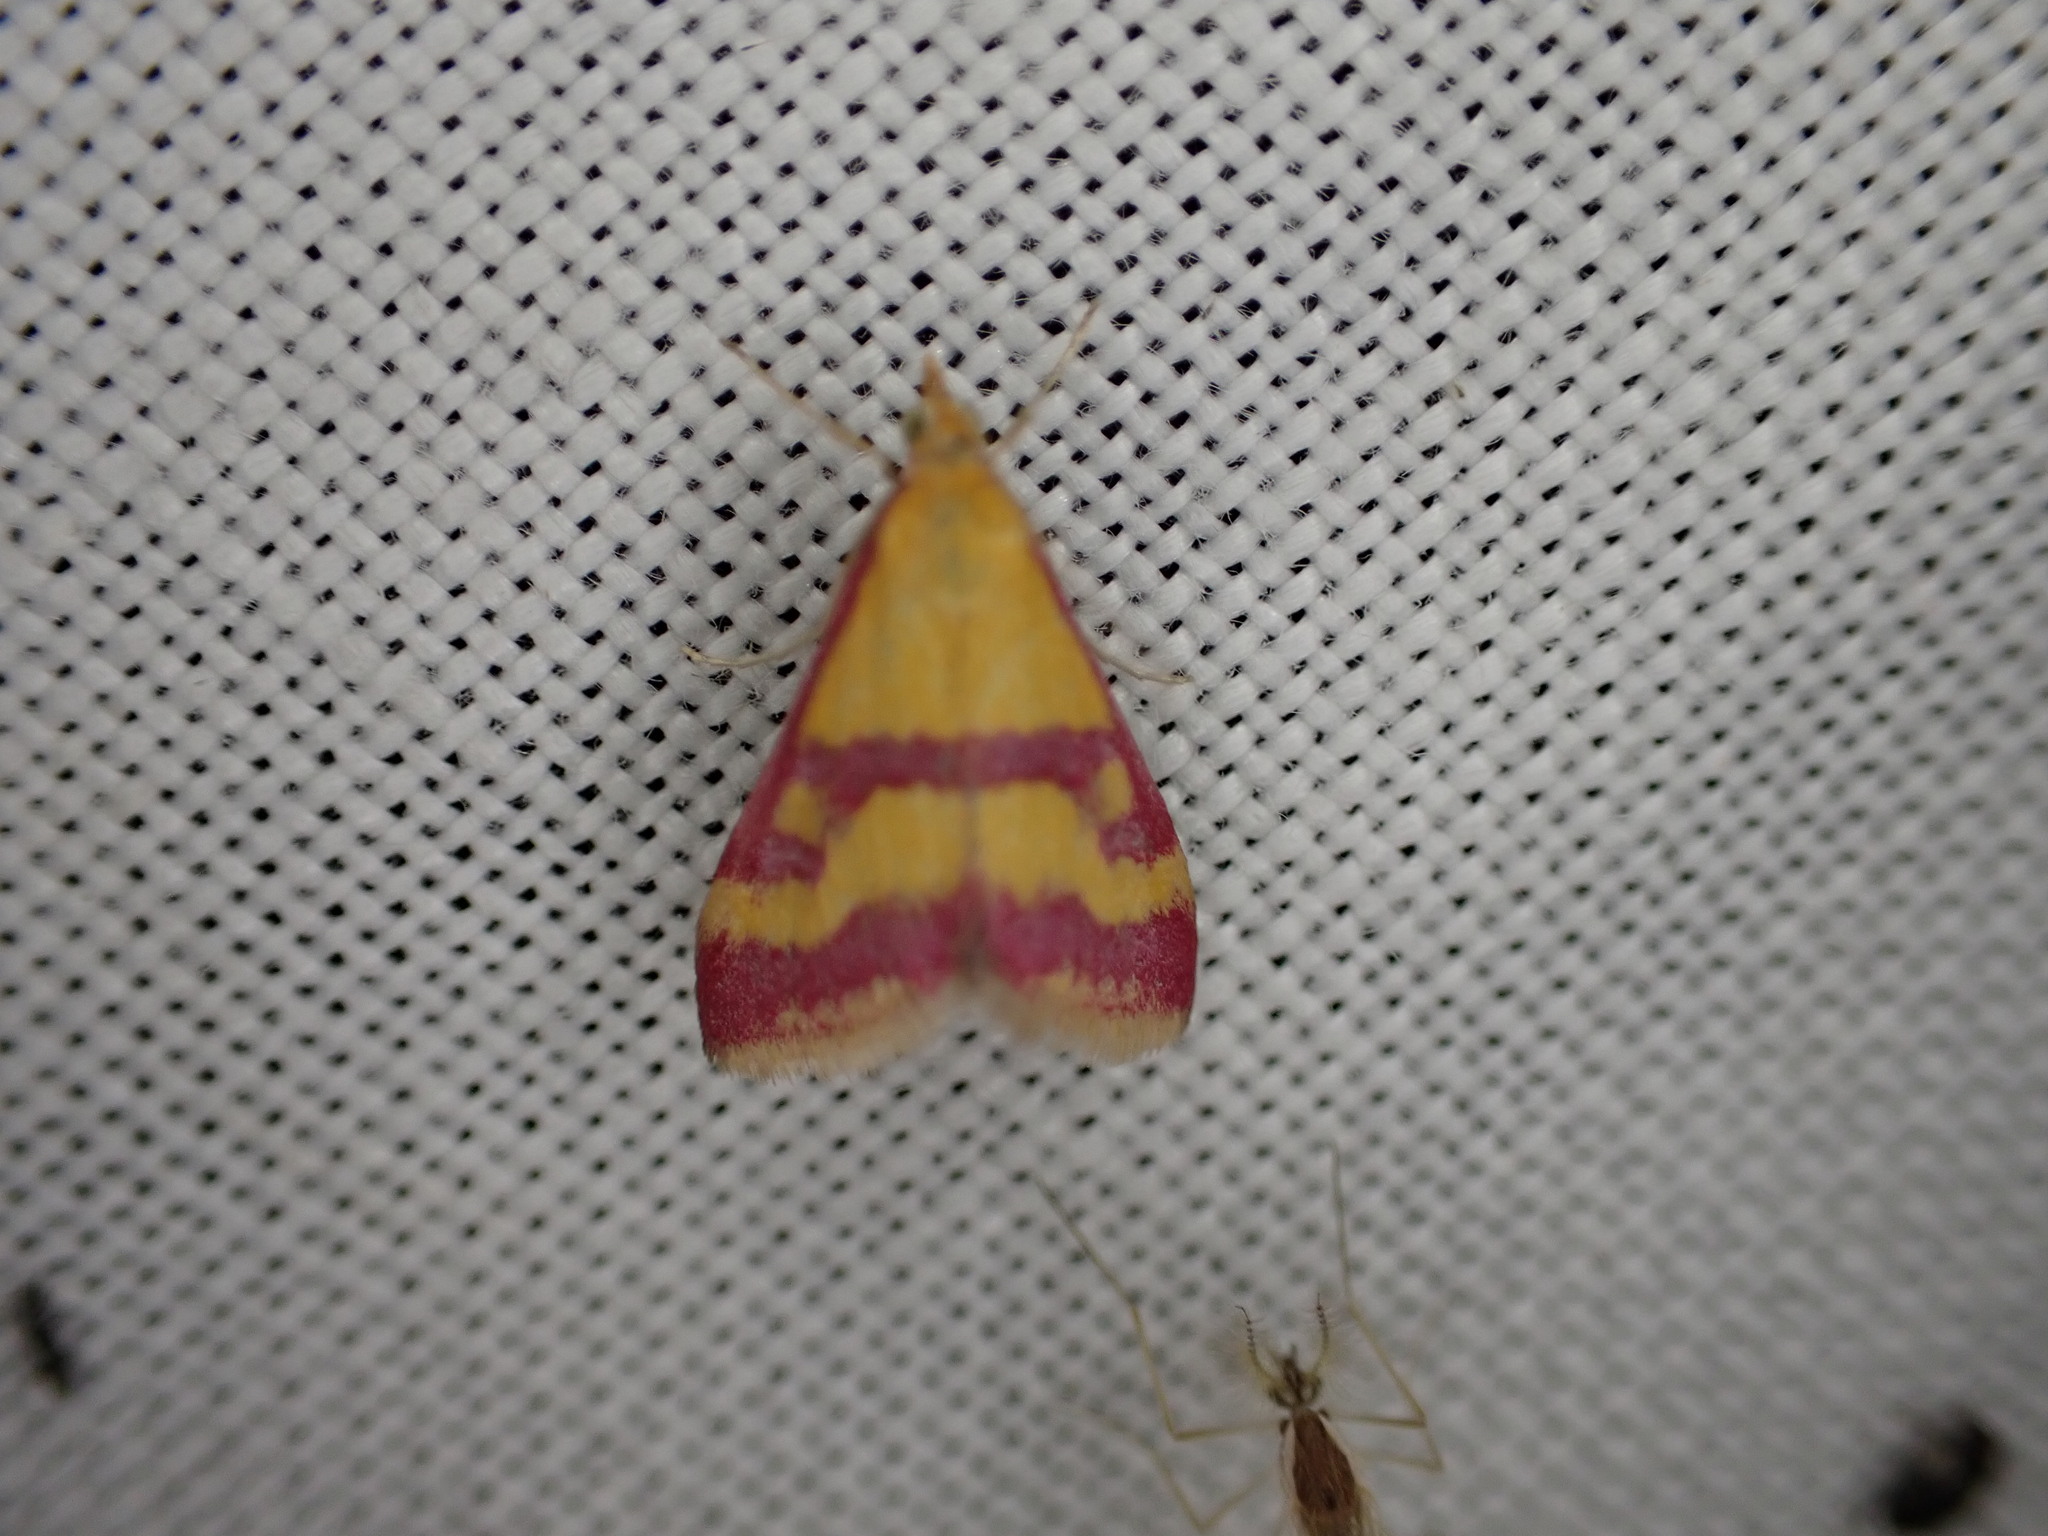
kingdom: Animalia
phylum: Arthropoda
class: Insecta
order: Lepidoptera
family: Crambidae
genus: Pyrausta
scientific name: Pyrausta sanguinalis
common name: Scarce crimson and gold
